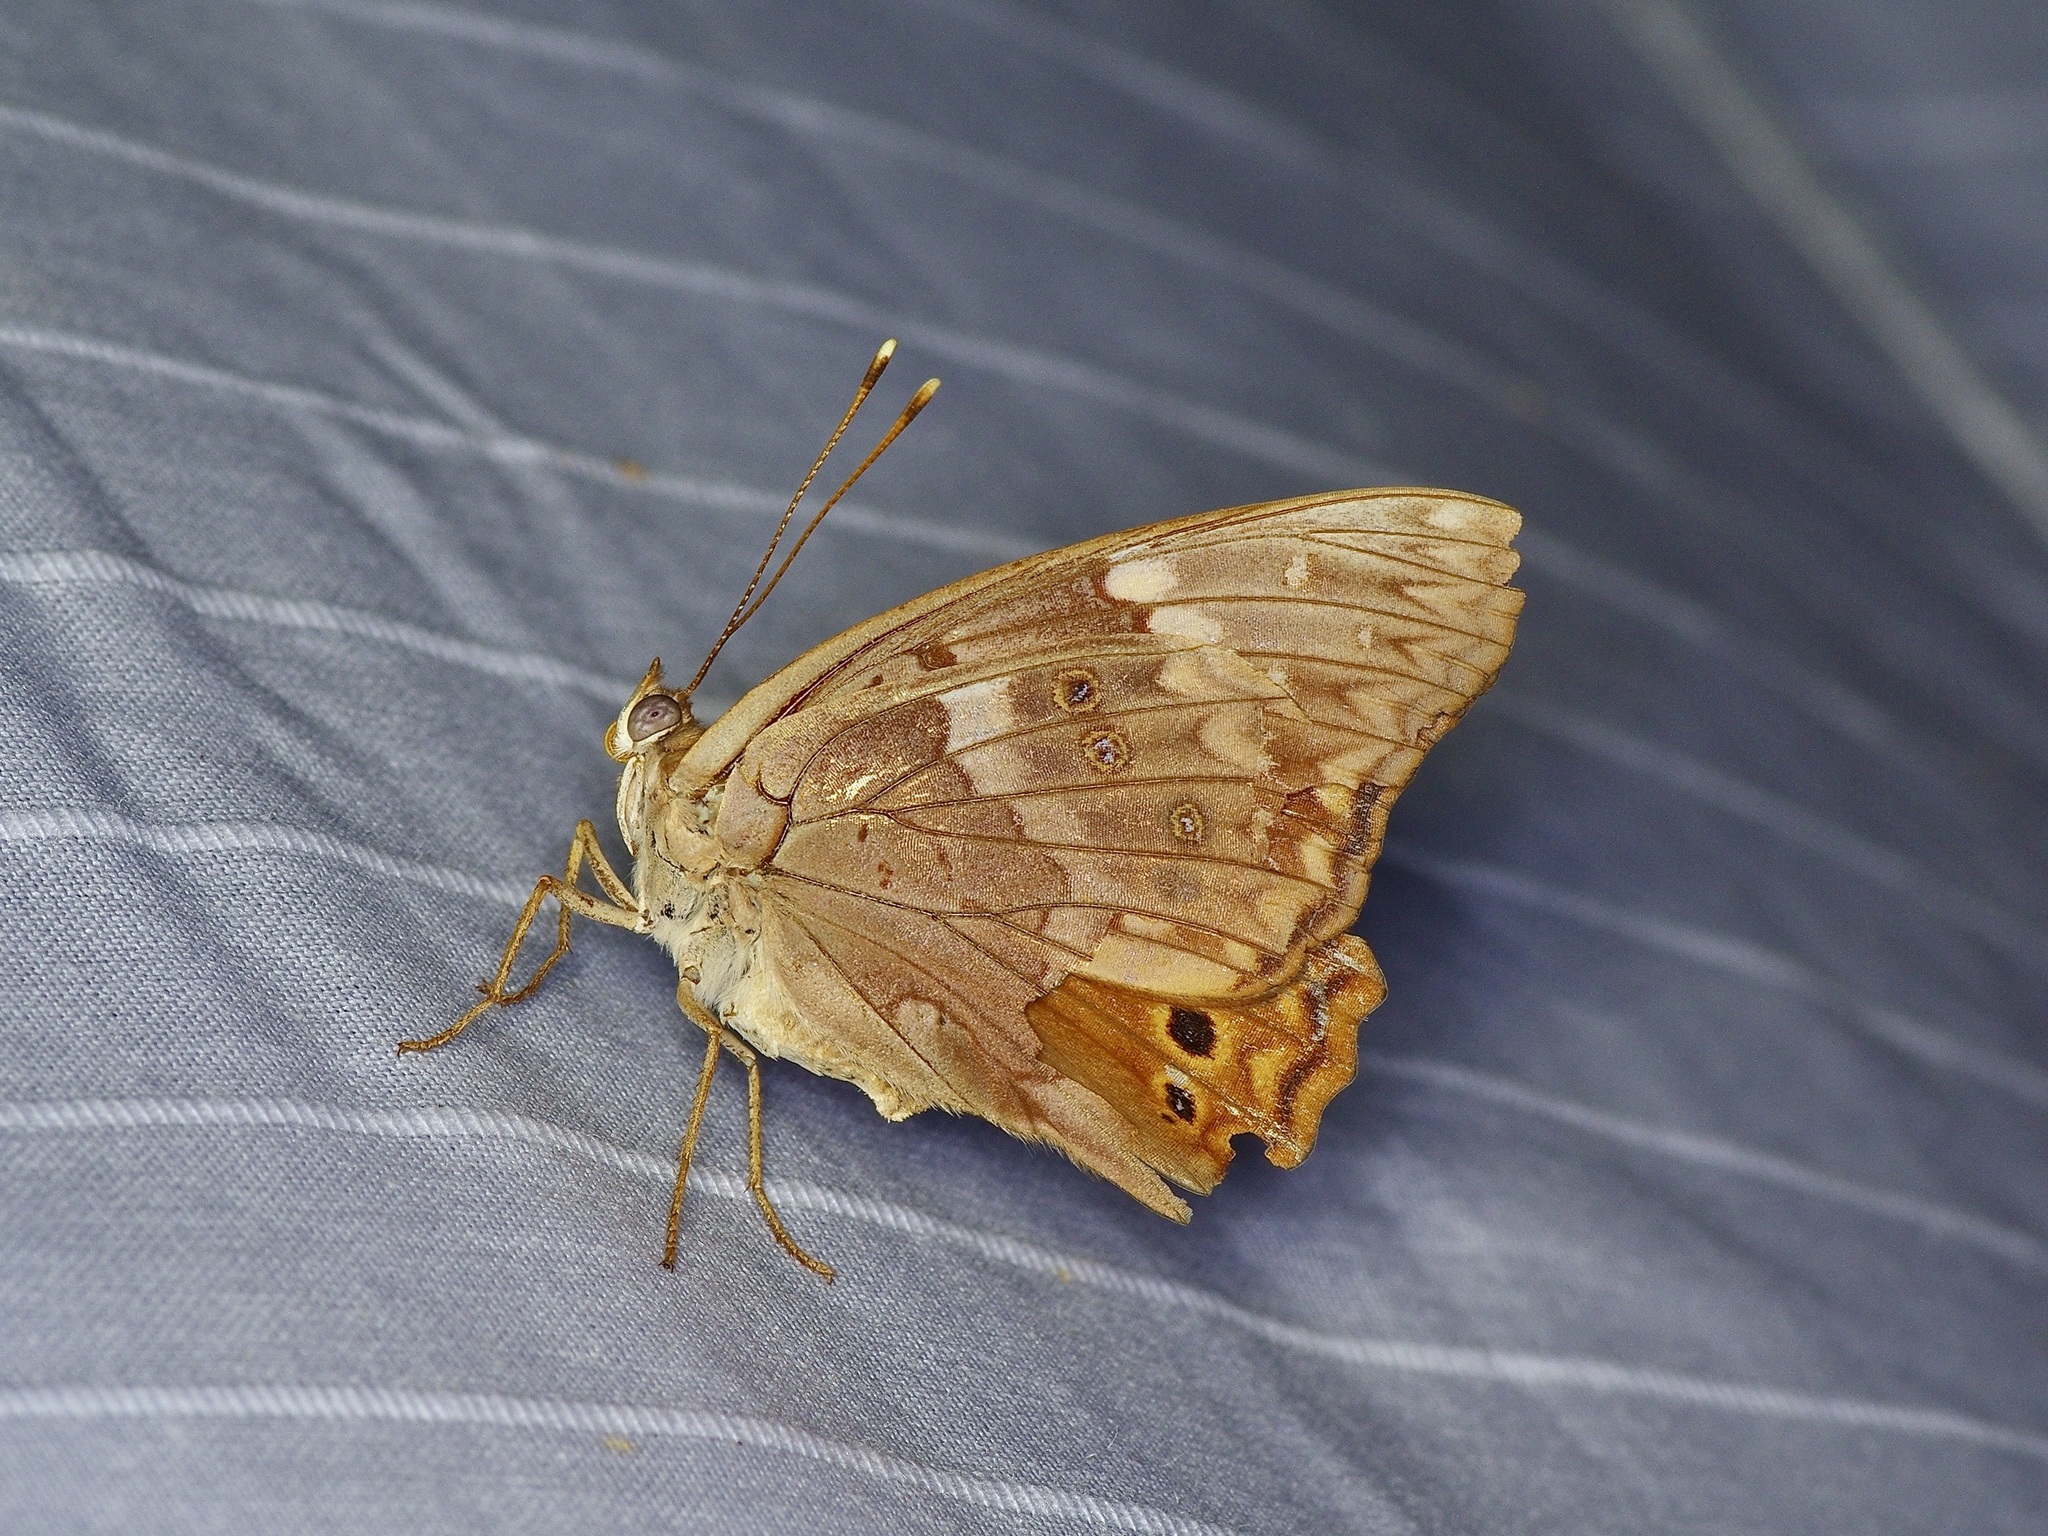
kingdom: Animalia
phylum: Arthropoda
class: Insecta
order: Lepidoptera
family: Nymphalidae
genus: Asterocampa
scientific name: Asterocampa clyton
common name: Tawny emperor
